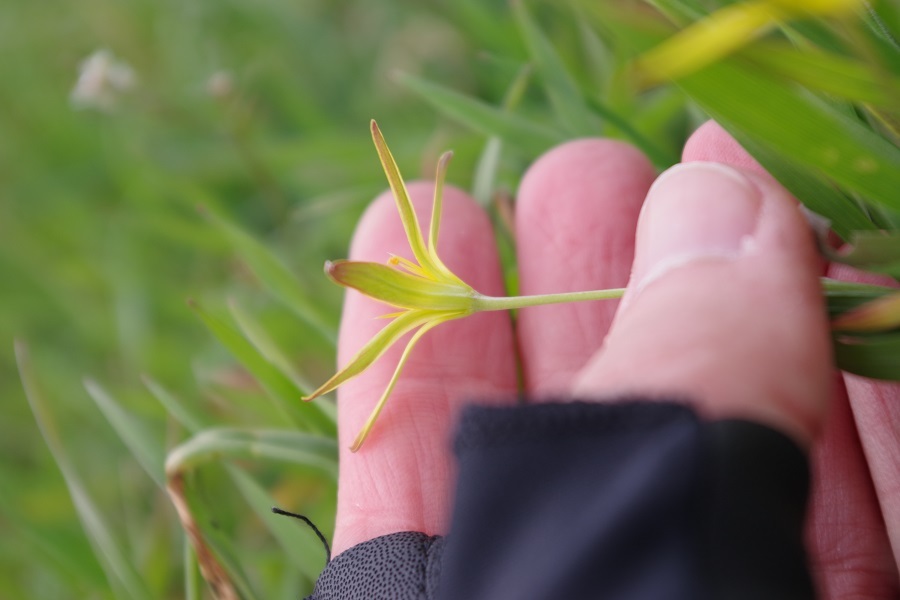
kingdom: Plantae
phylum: Tracheophyta
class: Liliopsida
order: Liliales
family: Liliaceae
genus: Gagea
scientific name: Gagea pratensis
